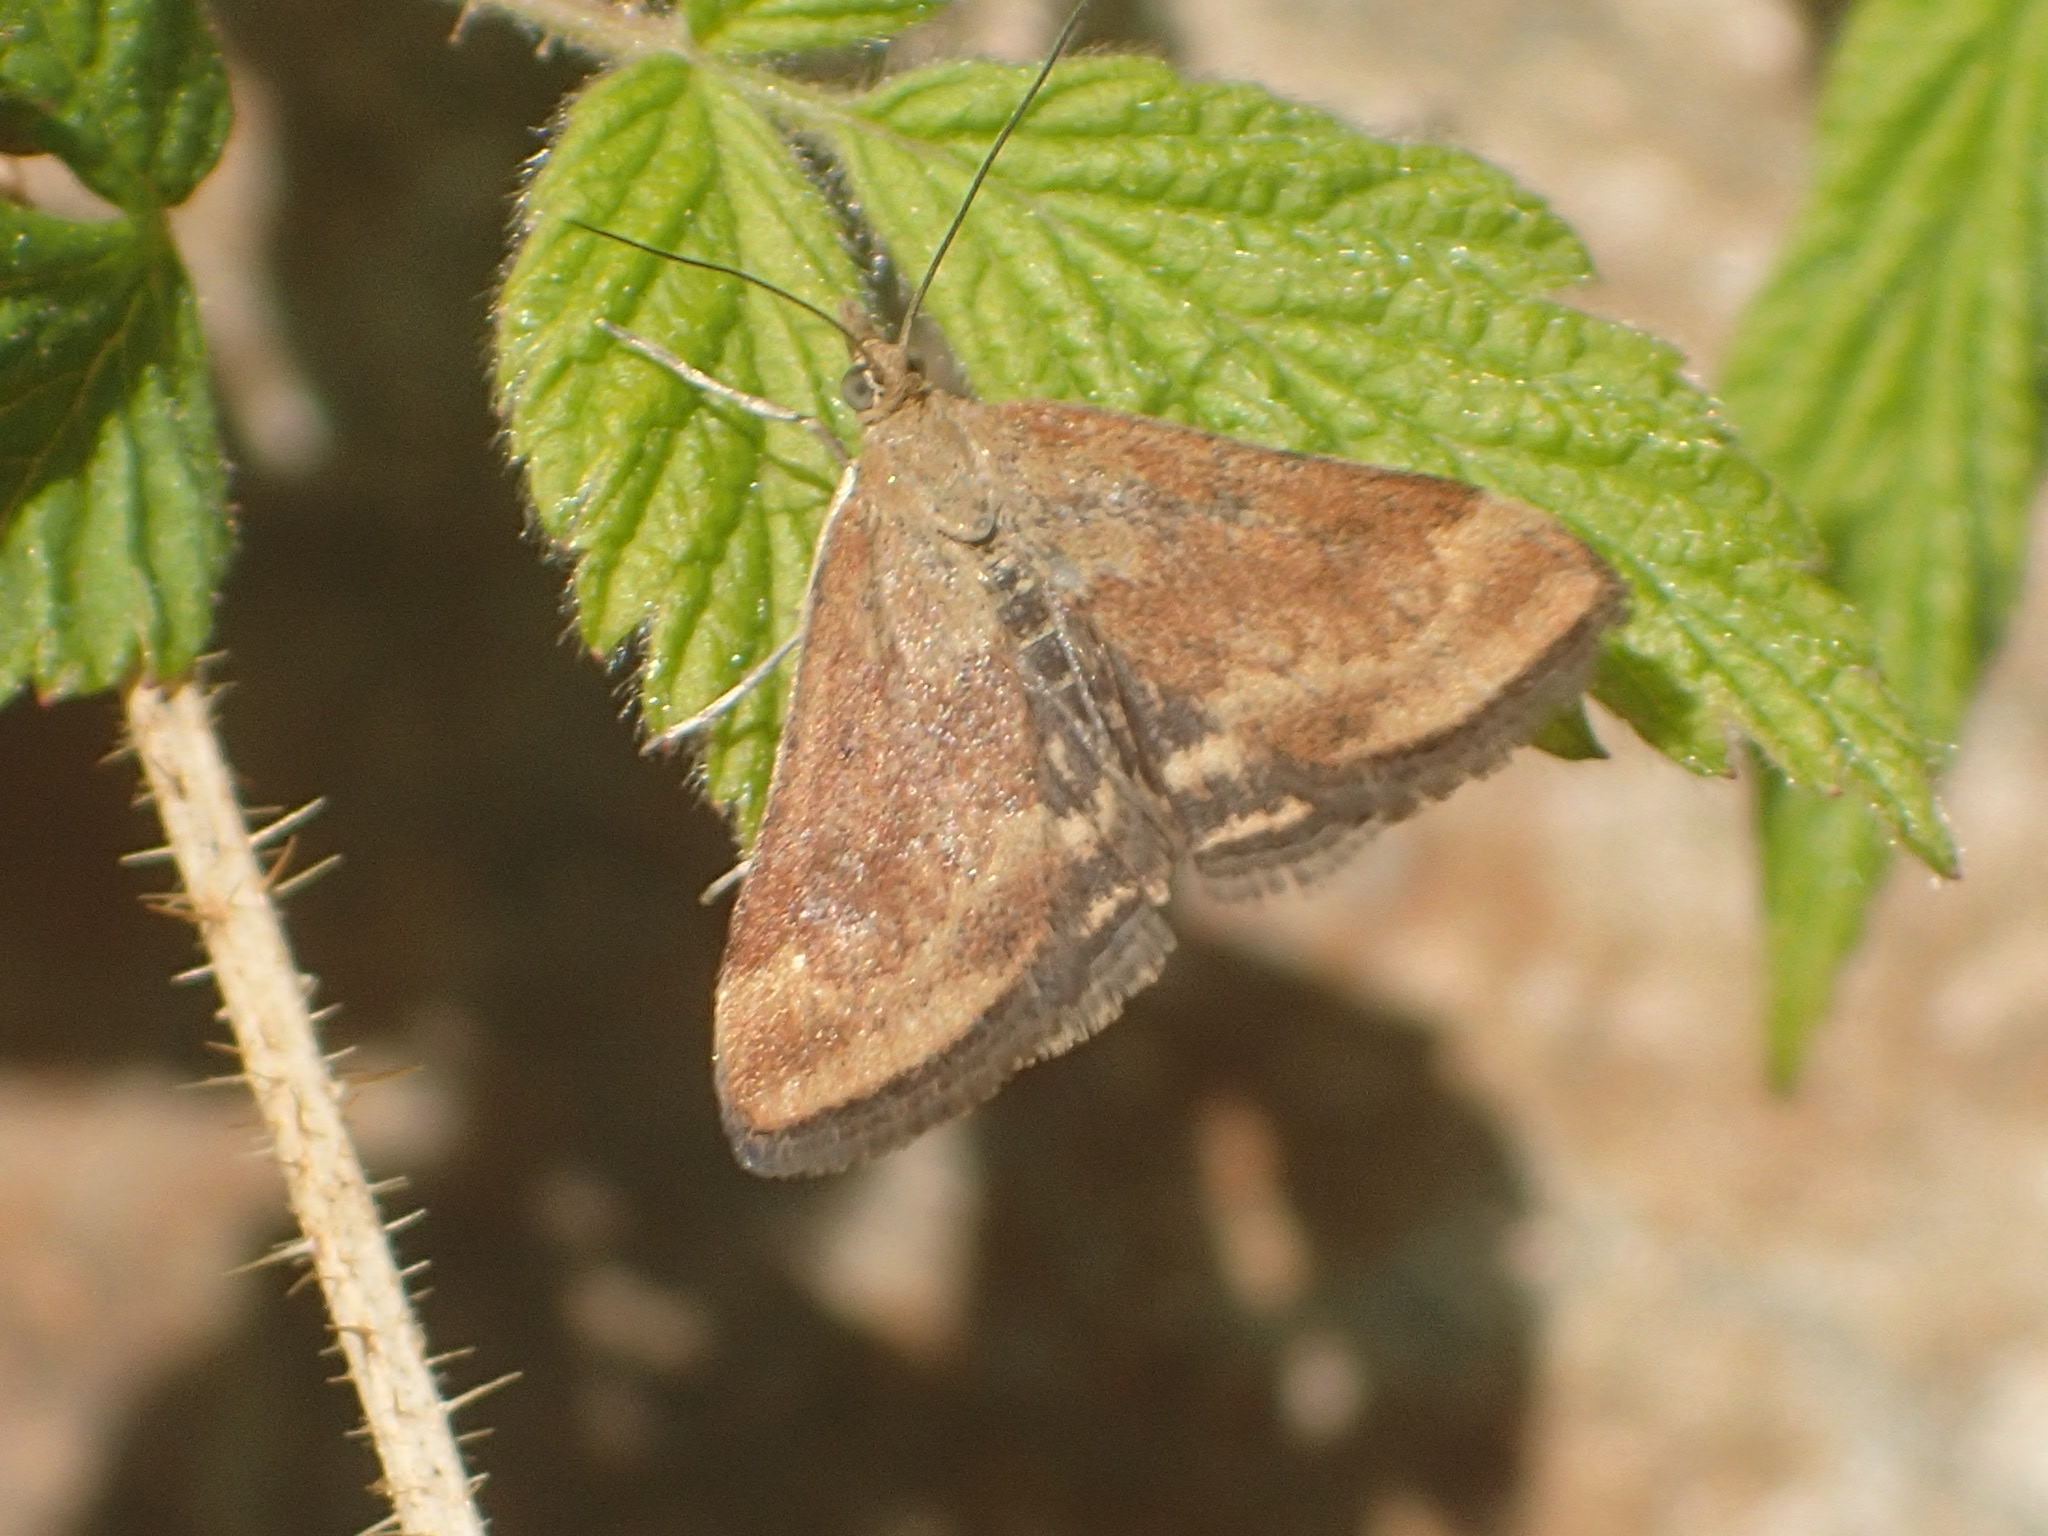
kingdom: Animalia
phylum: Arthropoda
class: Insecta
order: Lepidoptera
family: Crambidae
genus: Pyrausta
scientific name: Pyrausta subsequalis
